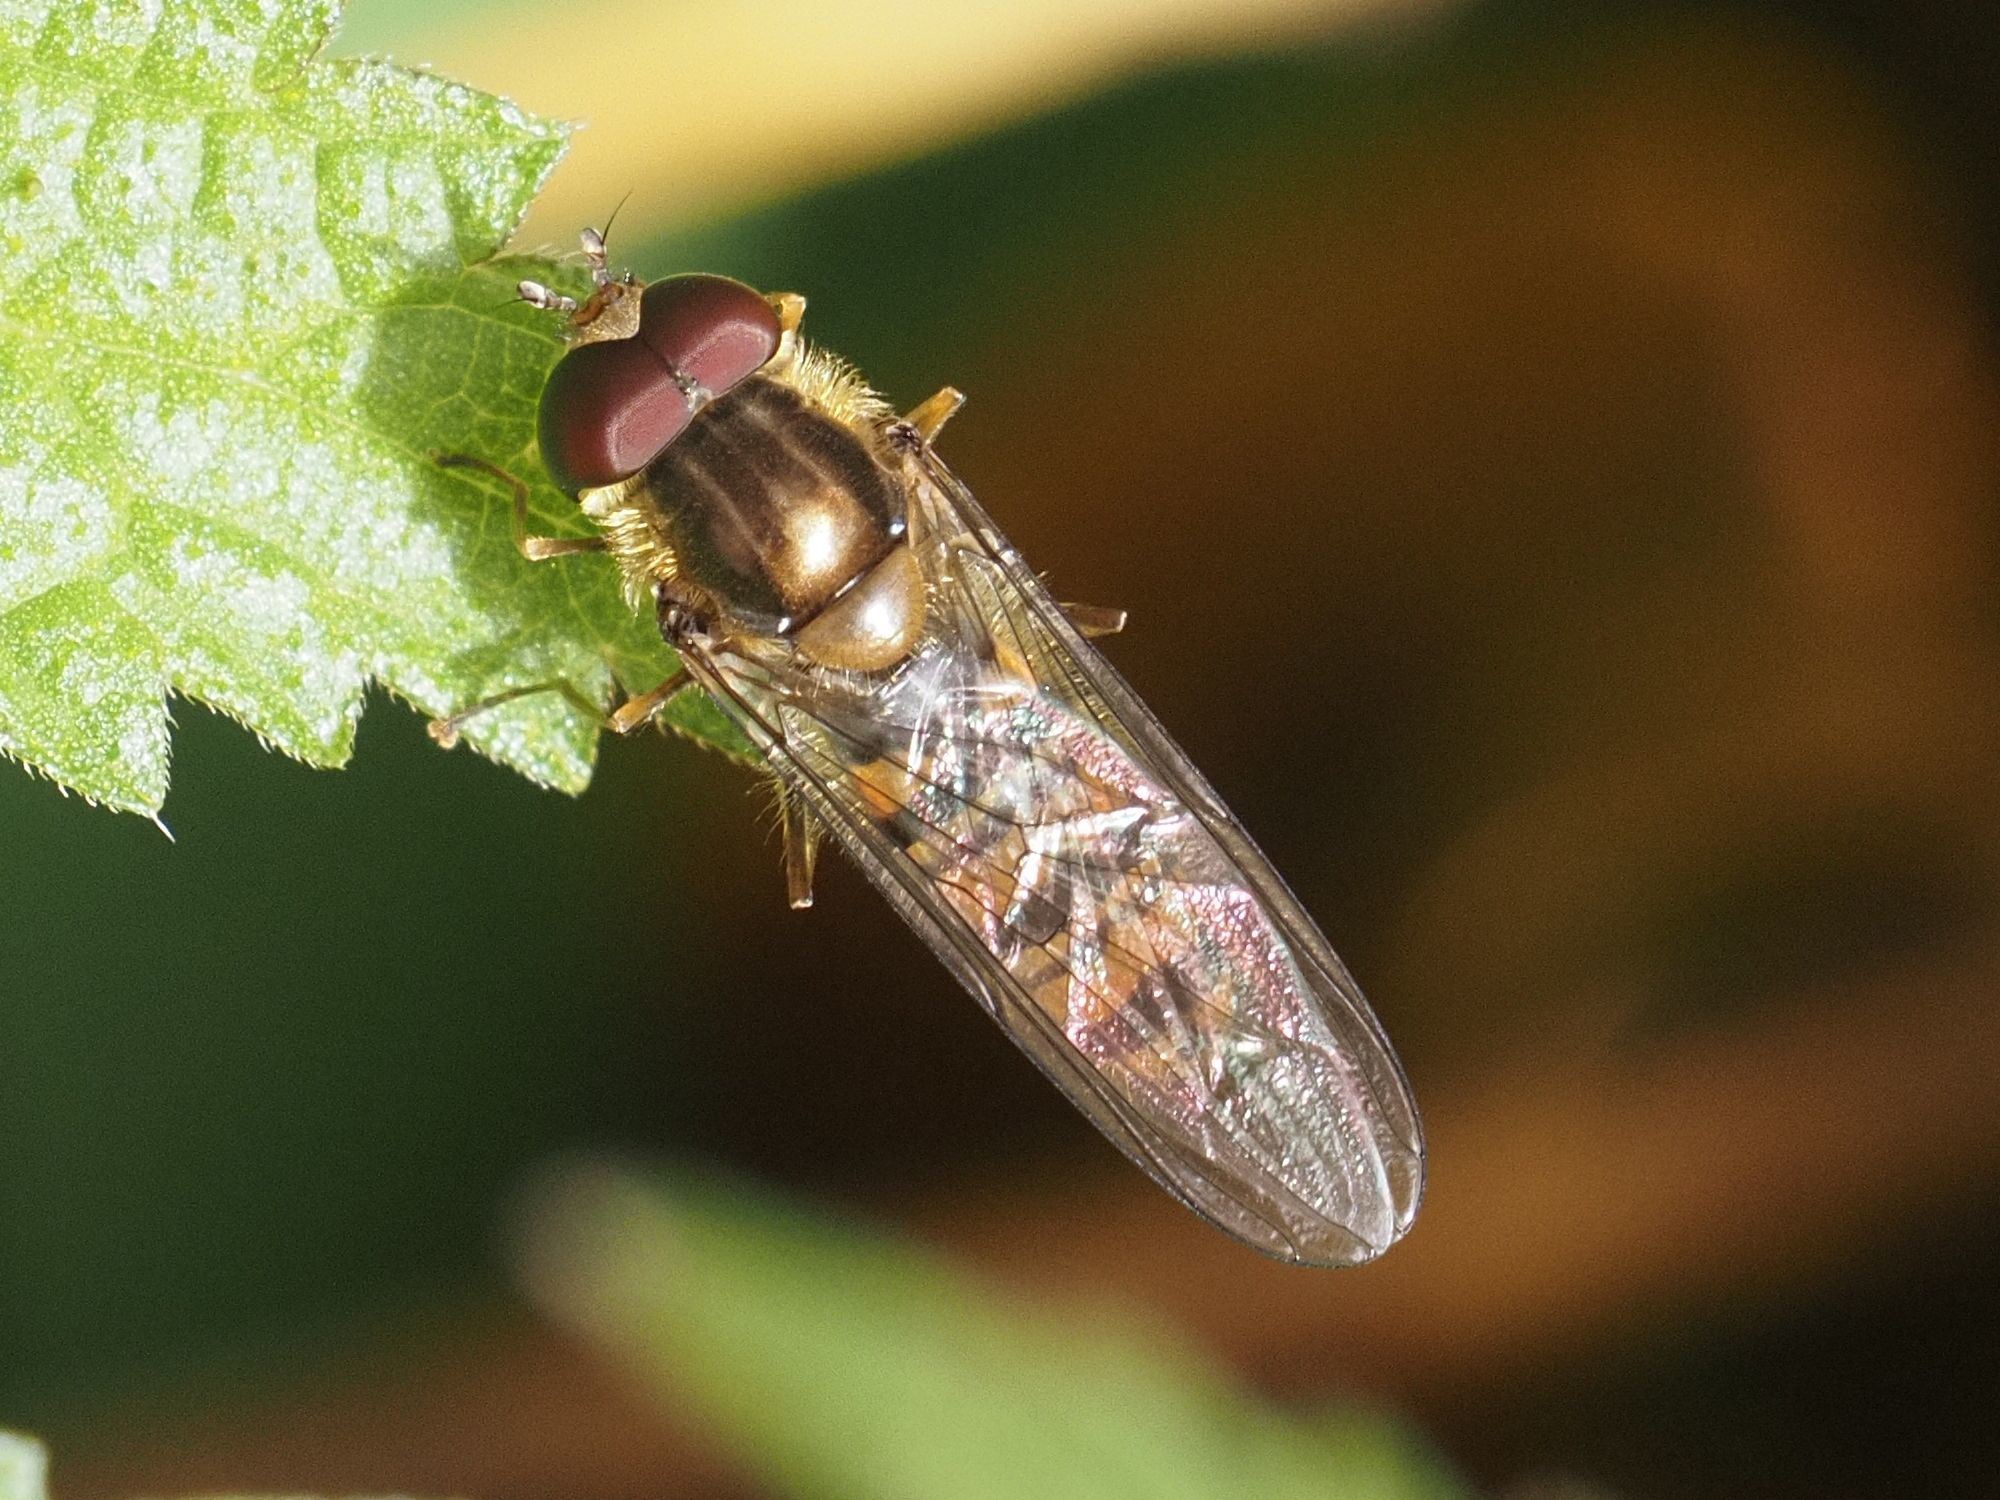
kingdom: Animalia
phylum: Arthropoda
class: Insecta
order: Diptera
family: Syrphidae
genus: Episyrphus
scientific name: Episyrphus balteatus
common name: Marmalade hoverfly
